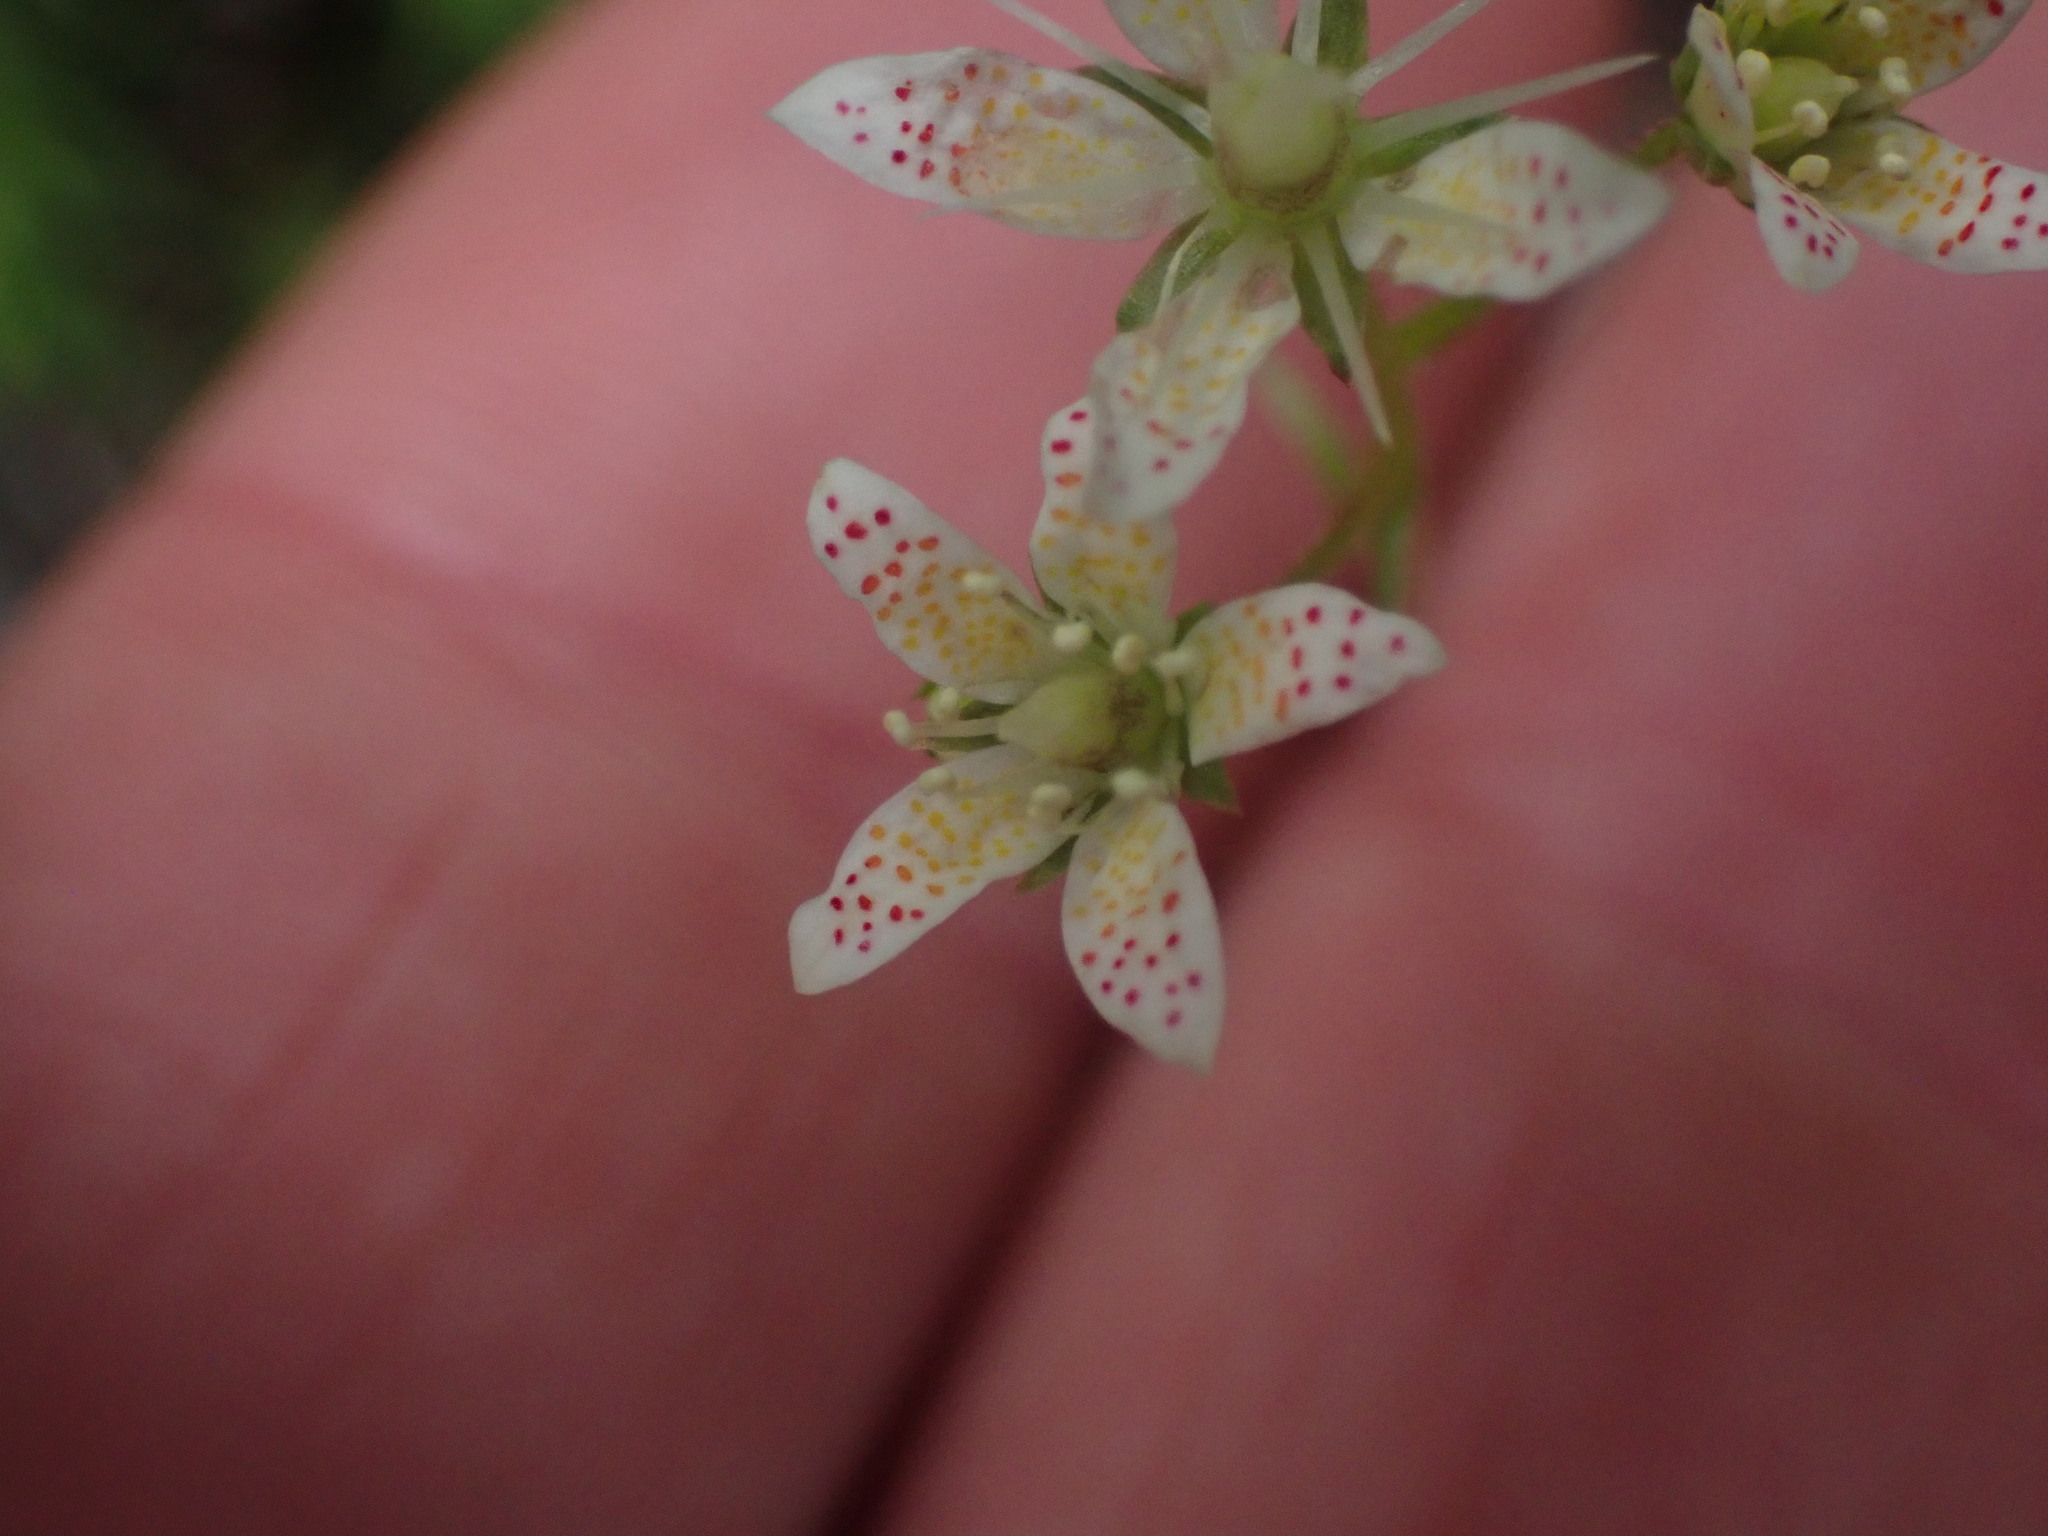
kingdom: Plantae
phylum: Tracheophyta
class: Magnoliopsida
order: Saxifragales
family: Saxifragaceae
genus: Saxifraga
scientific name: Saxifraga bronchialis
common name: Matted saxifrage
